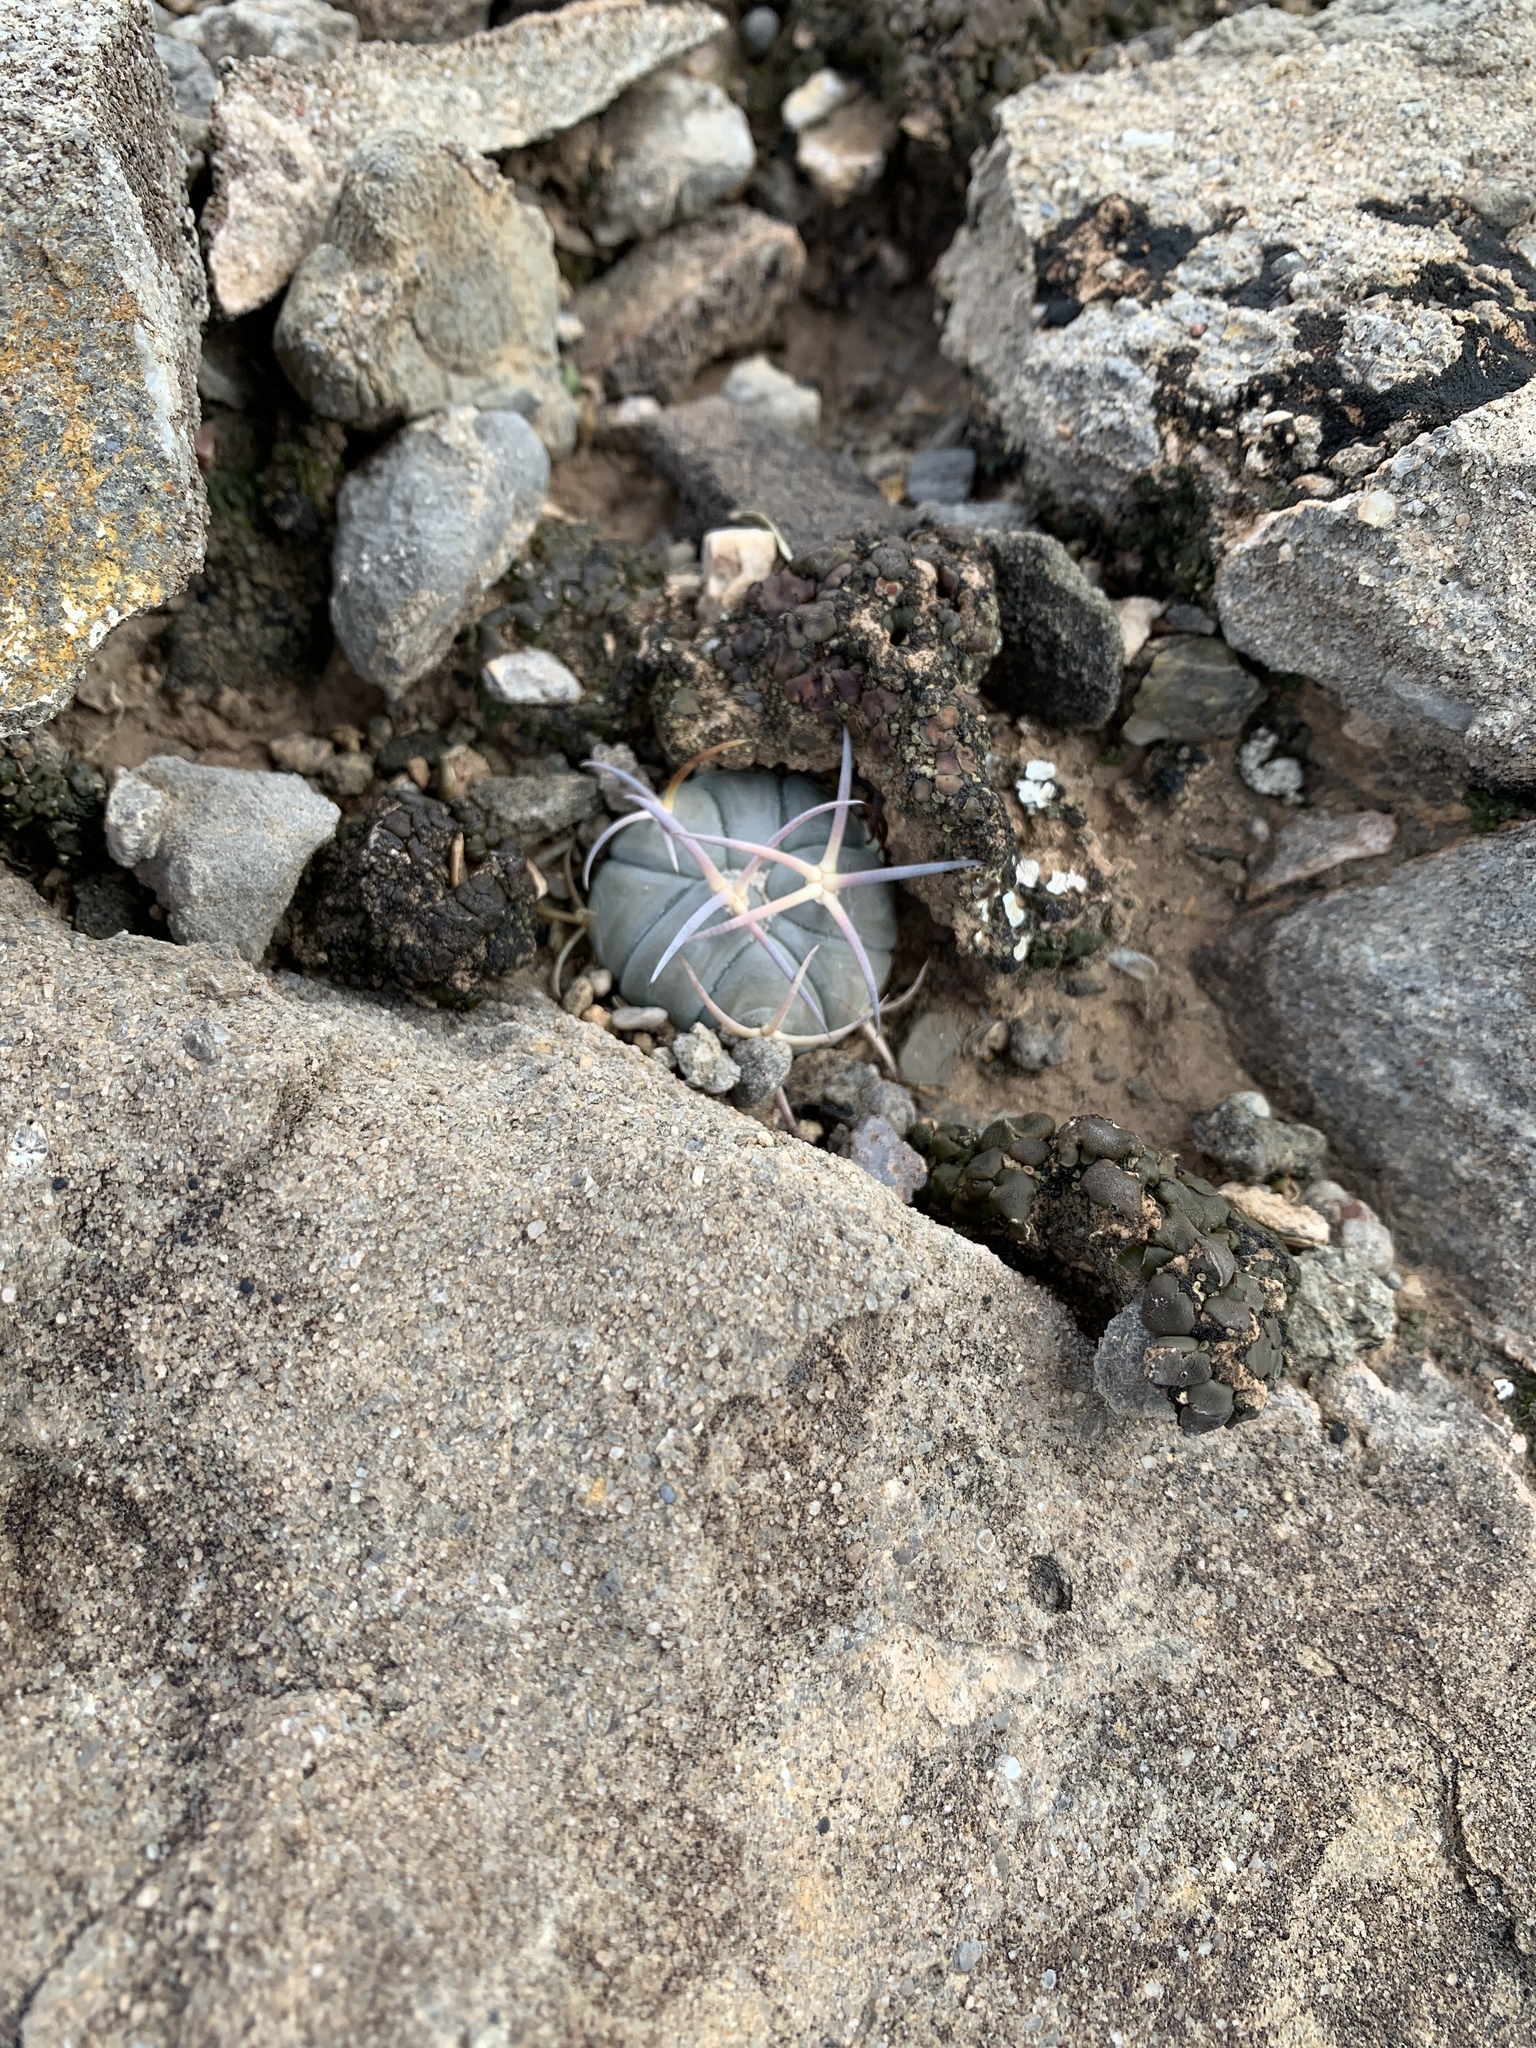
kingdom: Plantae
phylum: Tracheophyta
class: Magnoliopsida
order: Caryophyllales
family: Cactaceae
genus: Echinocactus
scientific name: Echinocactus horizonthalonius
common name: Devilshead
